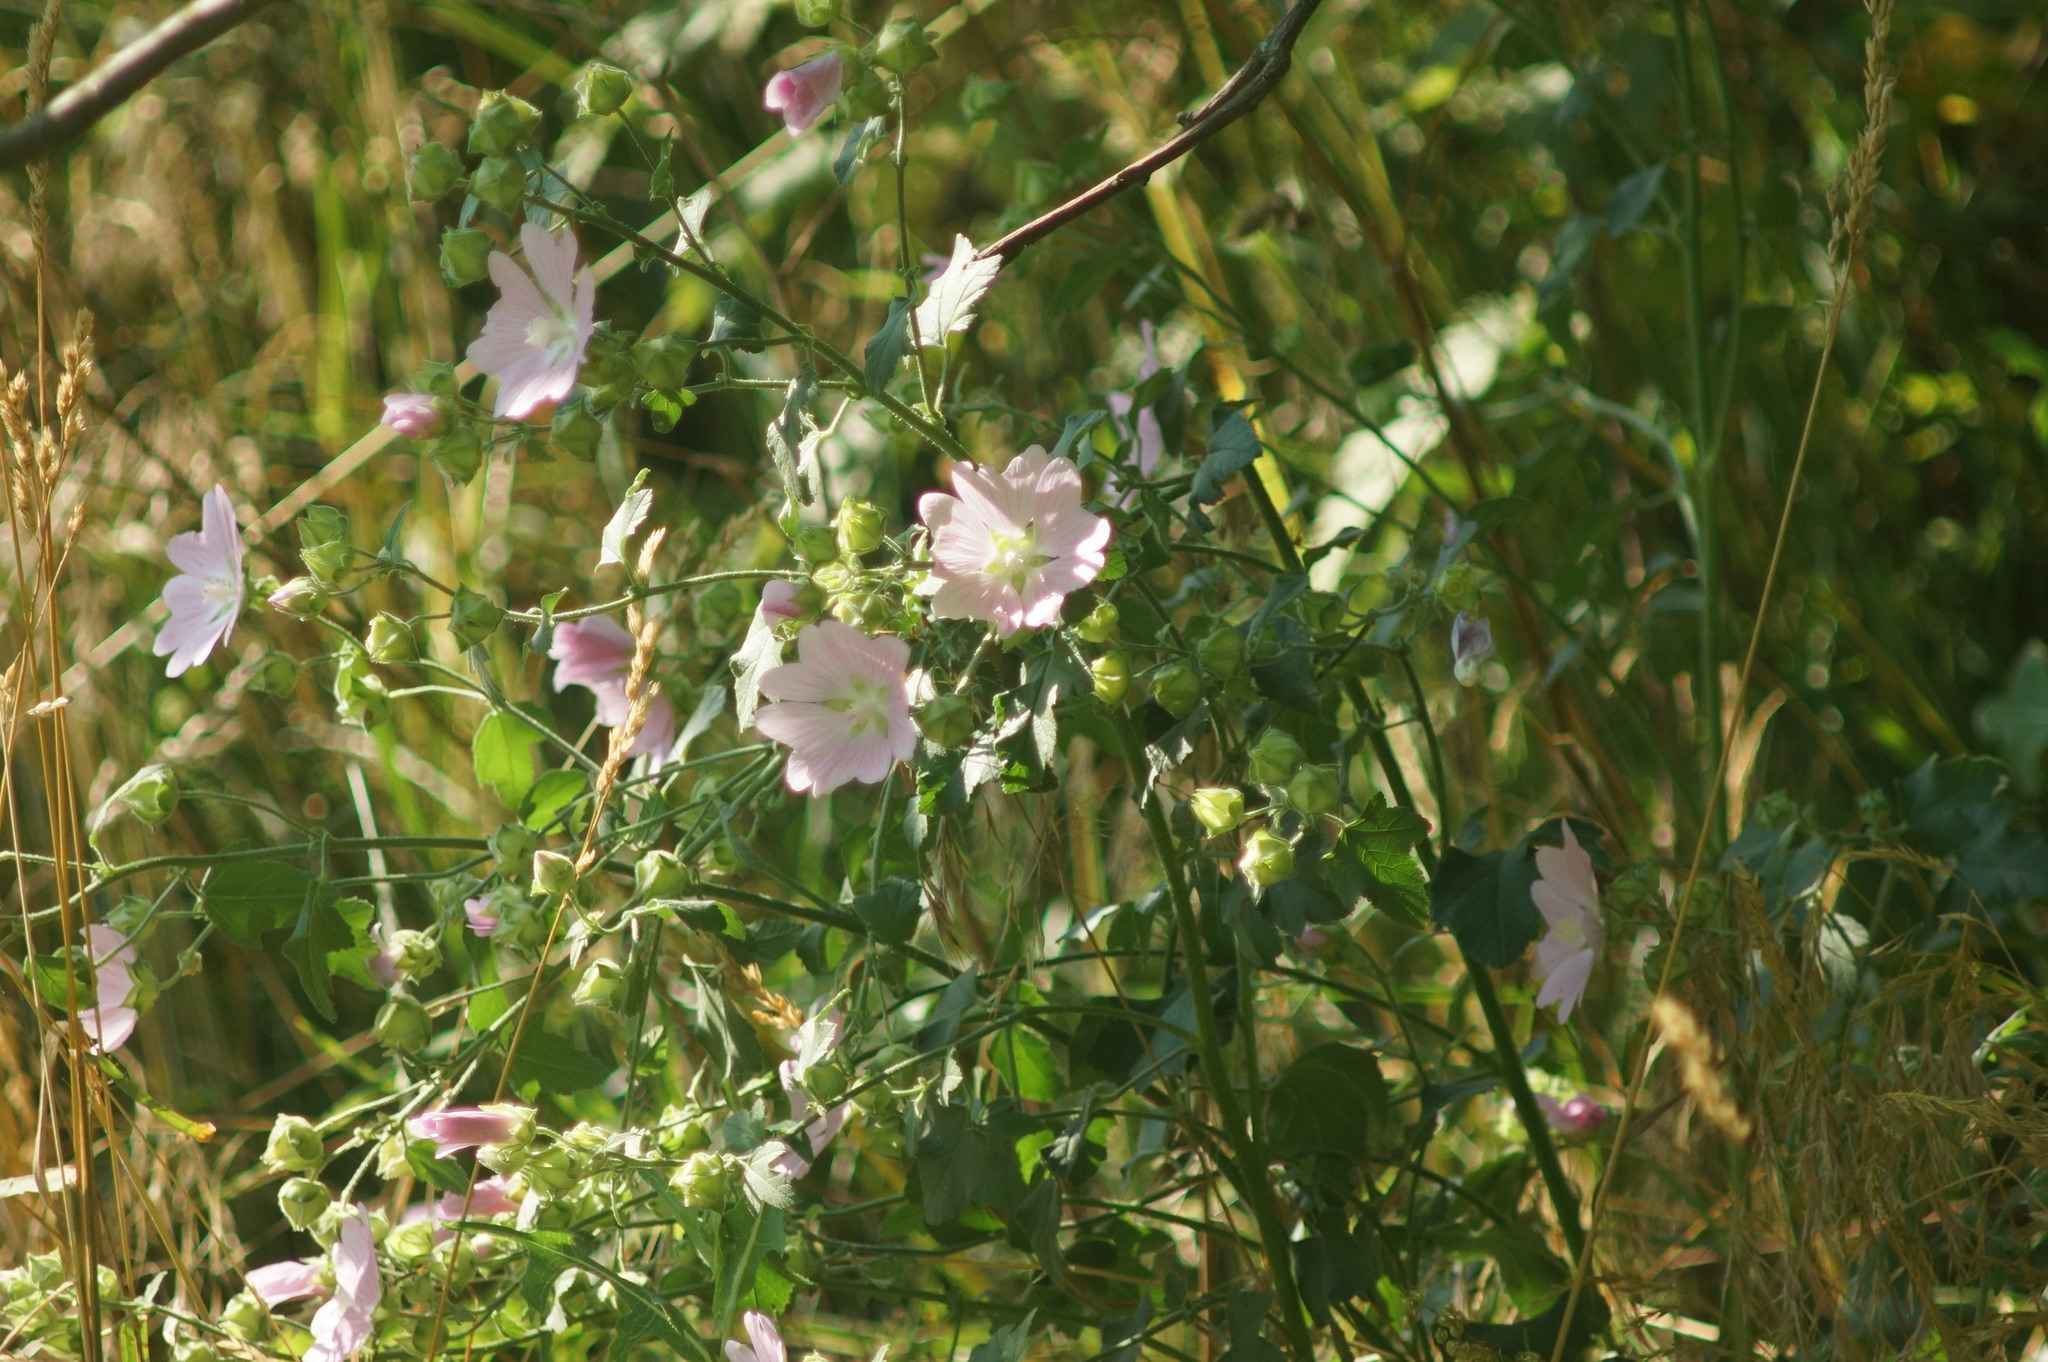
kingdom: Plantae
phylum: Tracheophyta
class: Magnoliopsida
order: Malvales
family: Malvaceae
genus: Malva
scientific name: Malva thuringiaca
